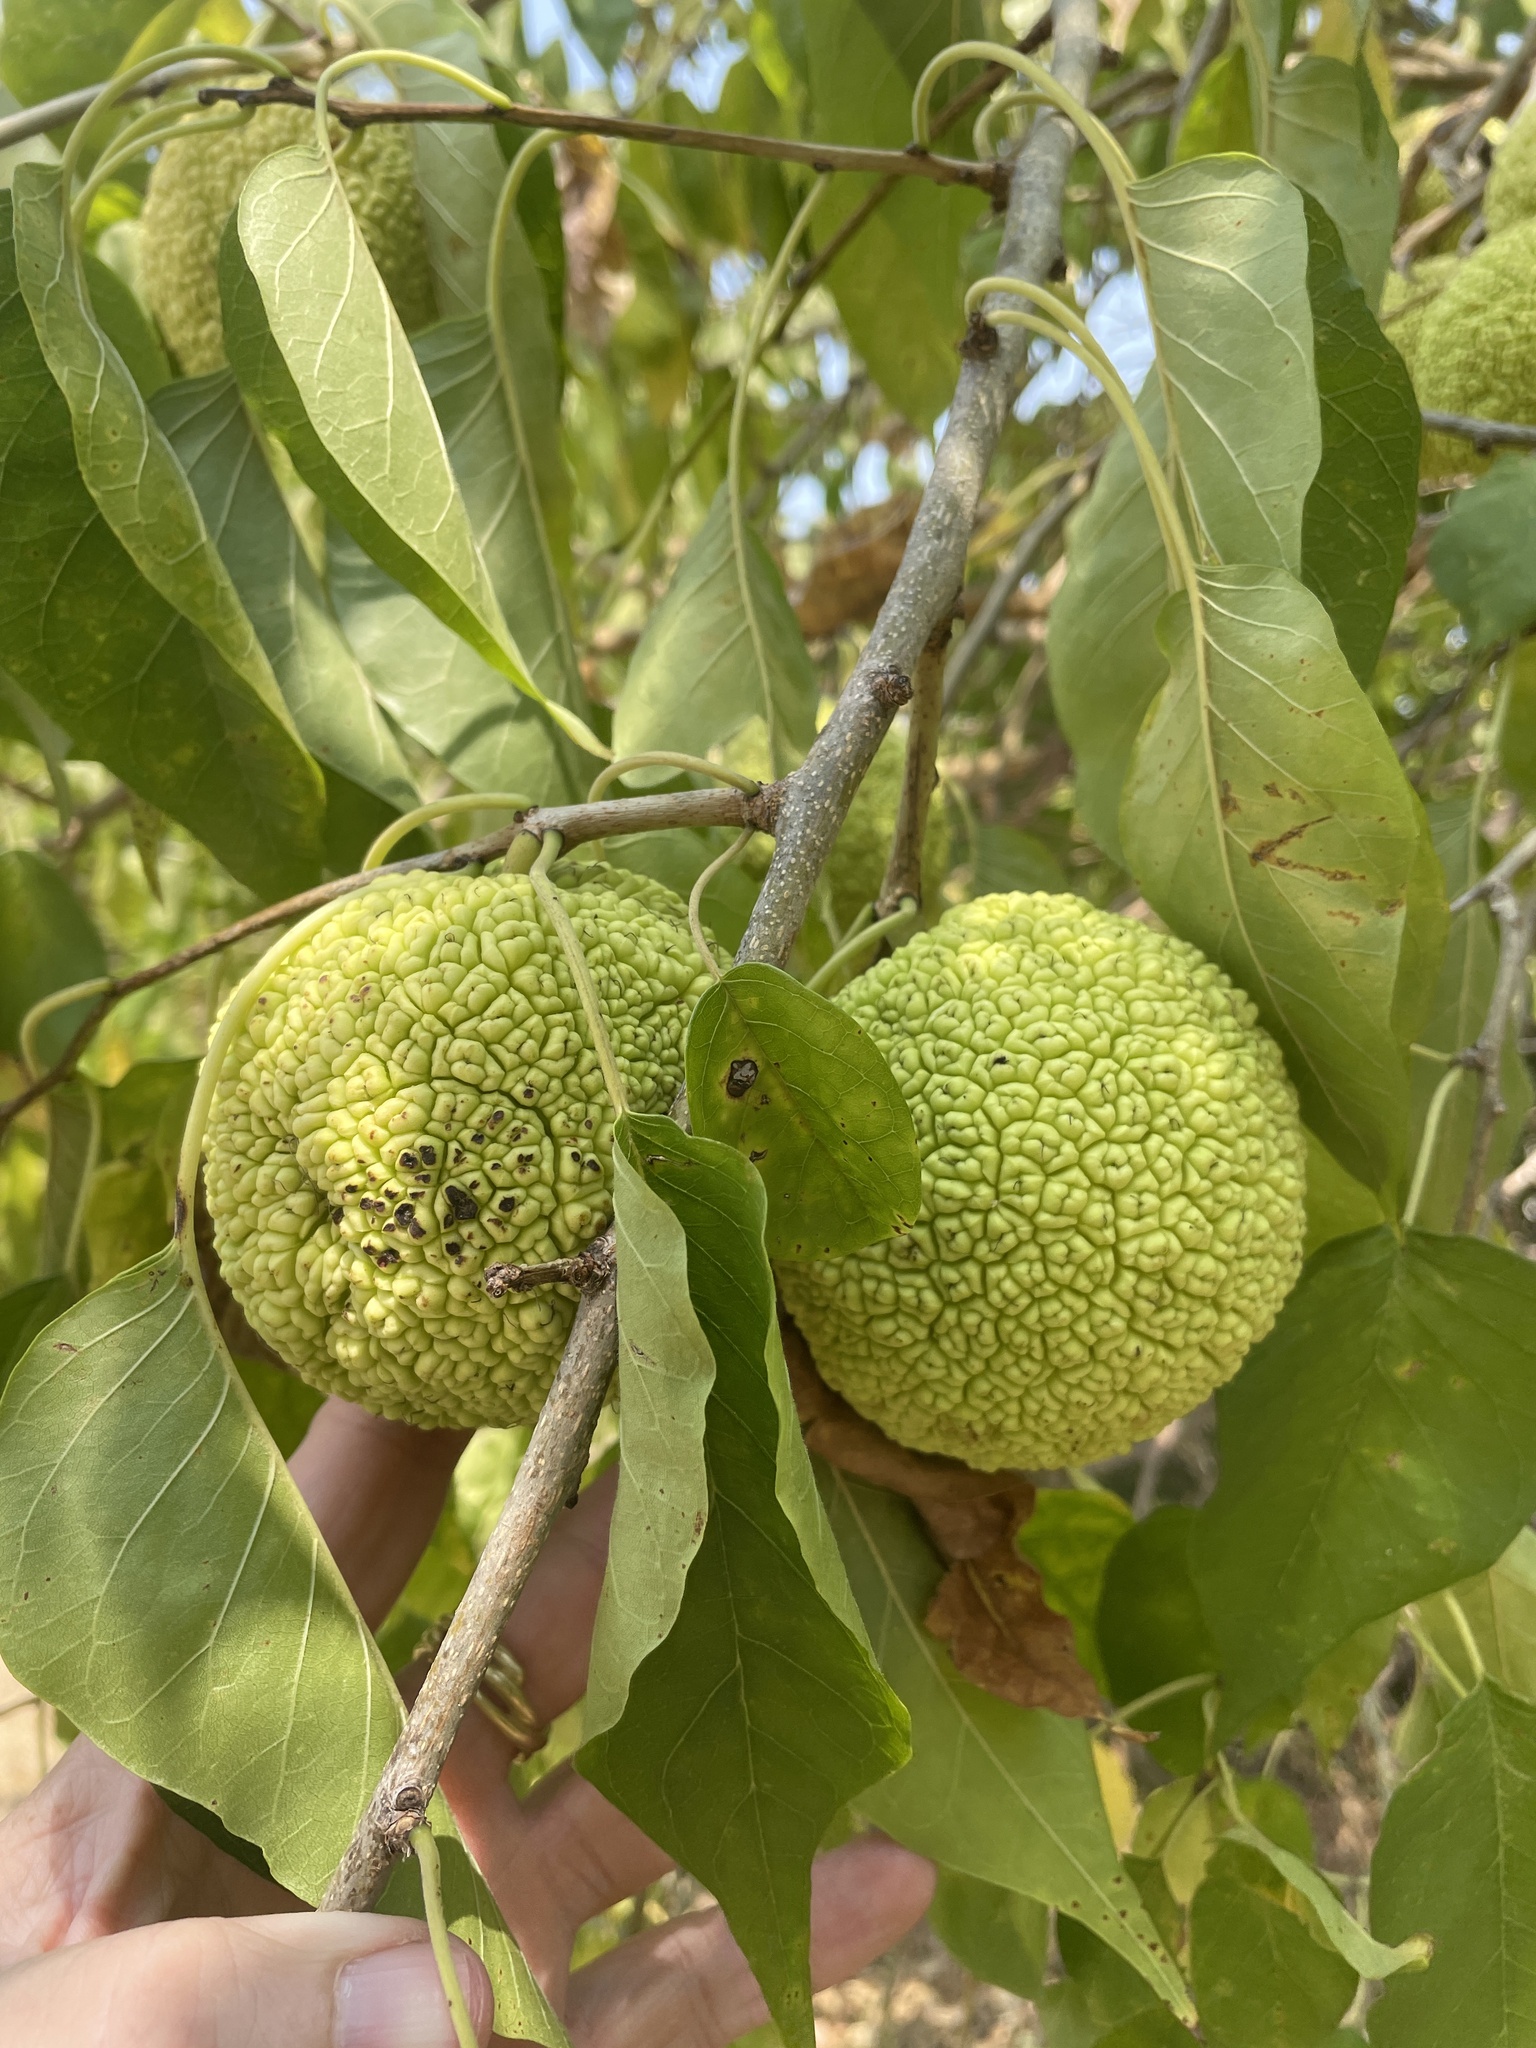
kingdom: Plantae
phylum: Tracheophyta
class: Magnoliopsida
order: Rosales
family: Moraceae
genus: Maclura
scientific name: Maclura pomifera
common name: Osage-orange
